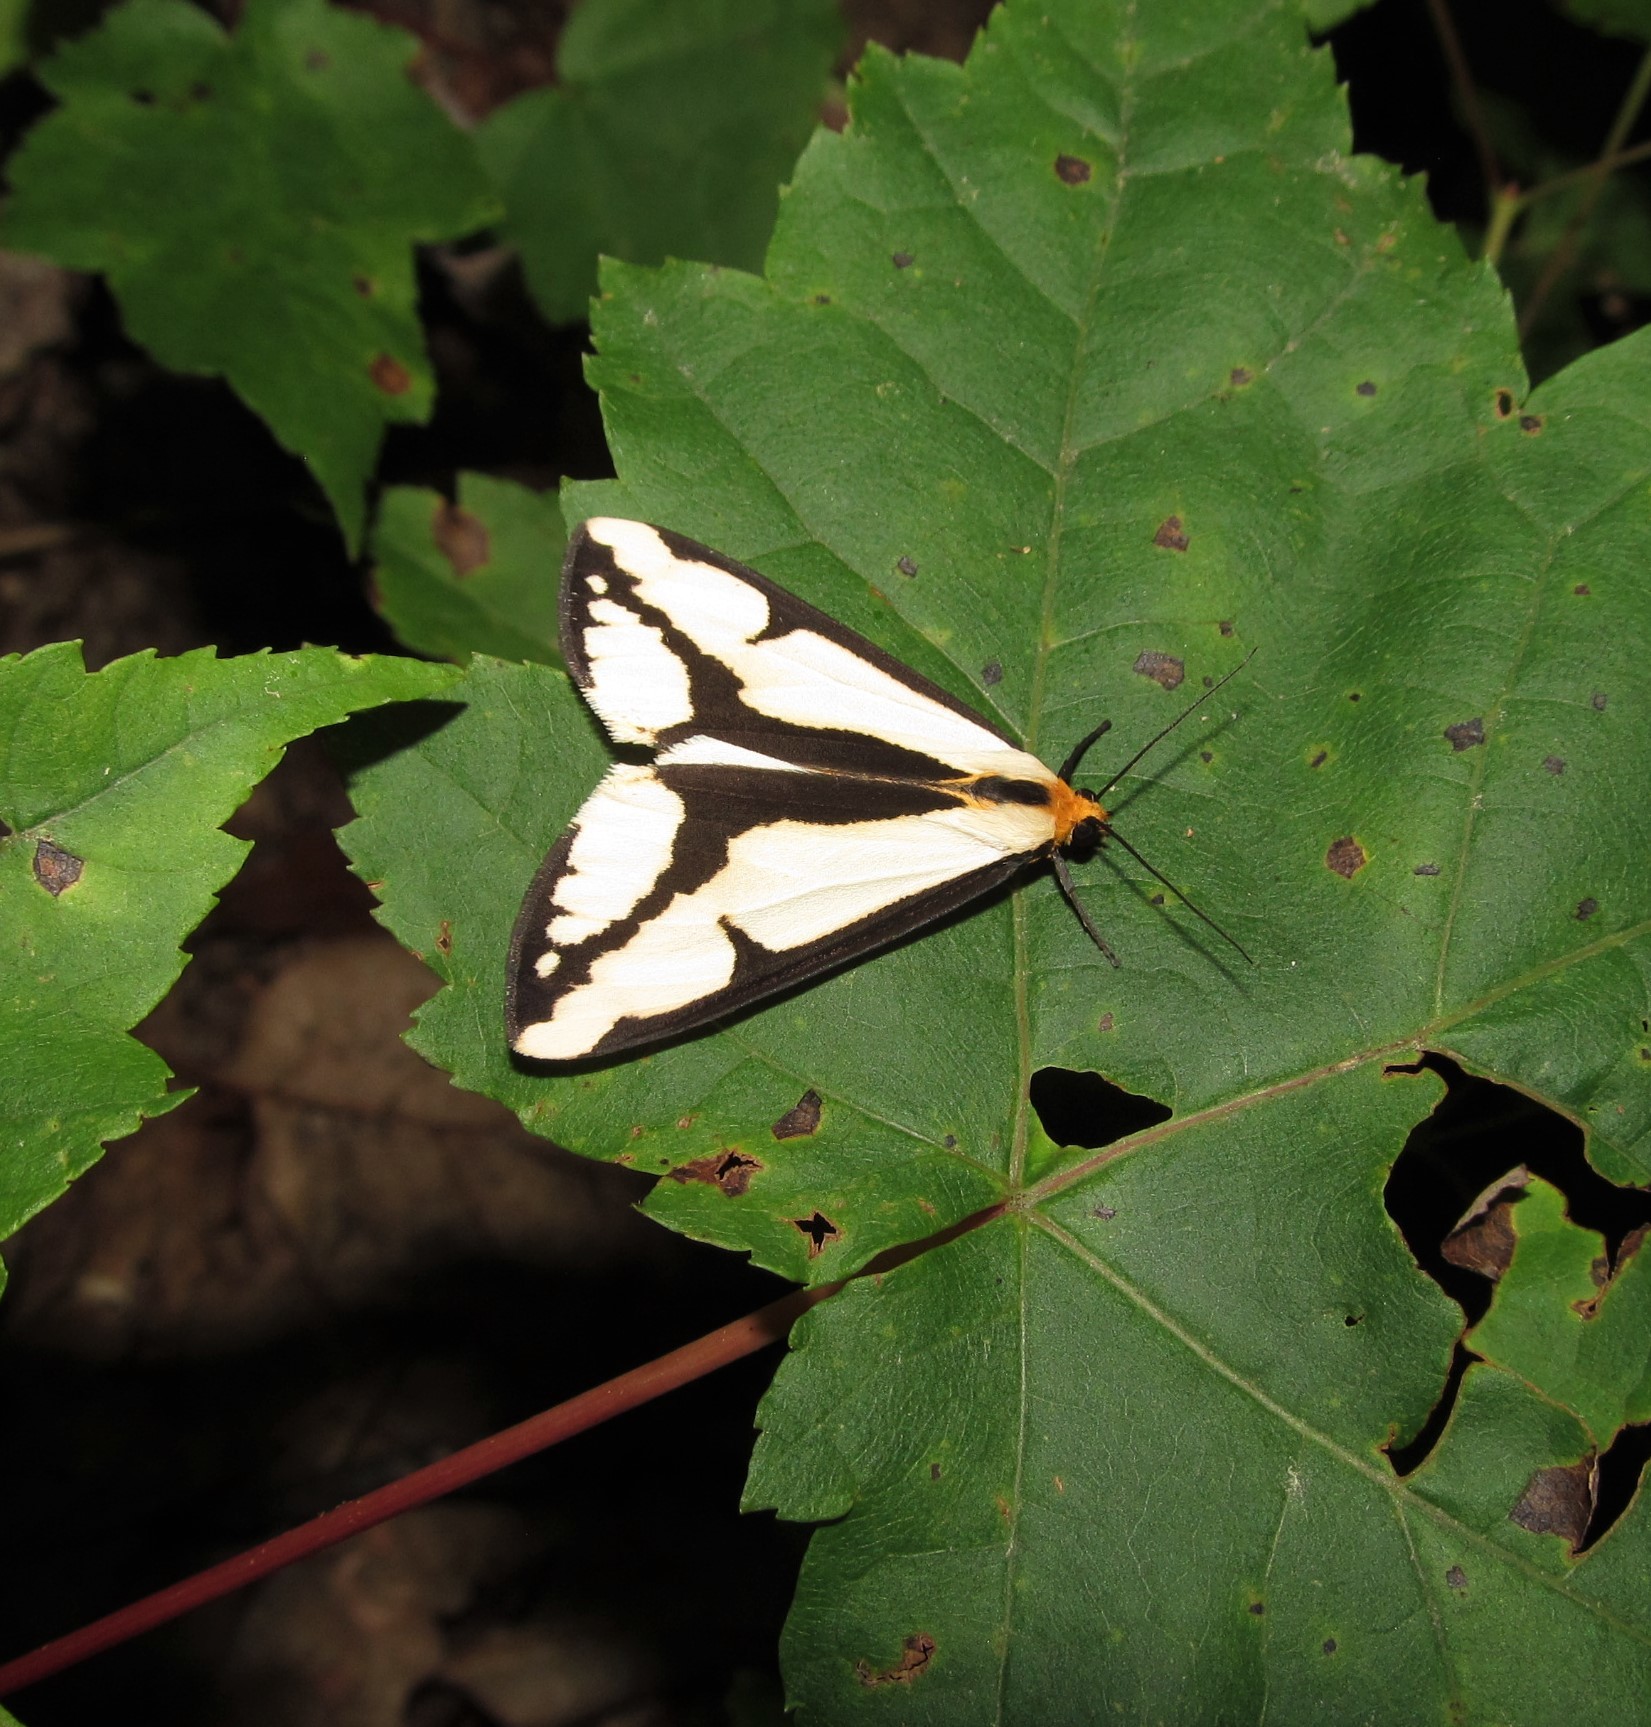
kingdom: Animalia
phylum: Arthropoda
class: Insecta
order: Lepidoptera
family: Erebidae
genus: Haploa
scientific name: Haploa lecontei
